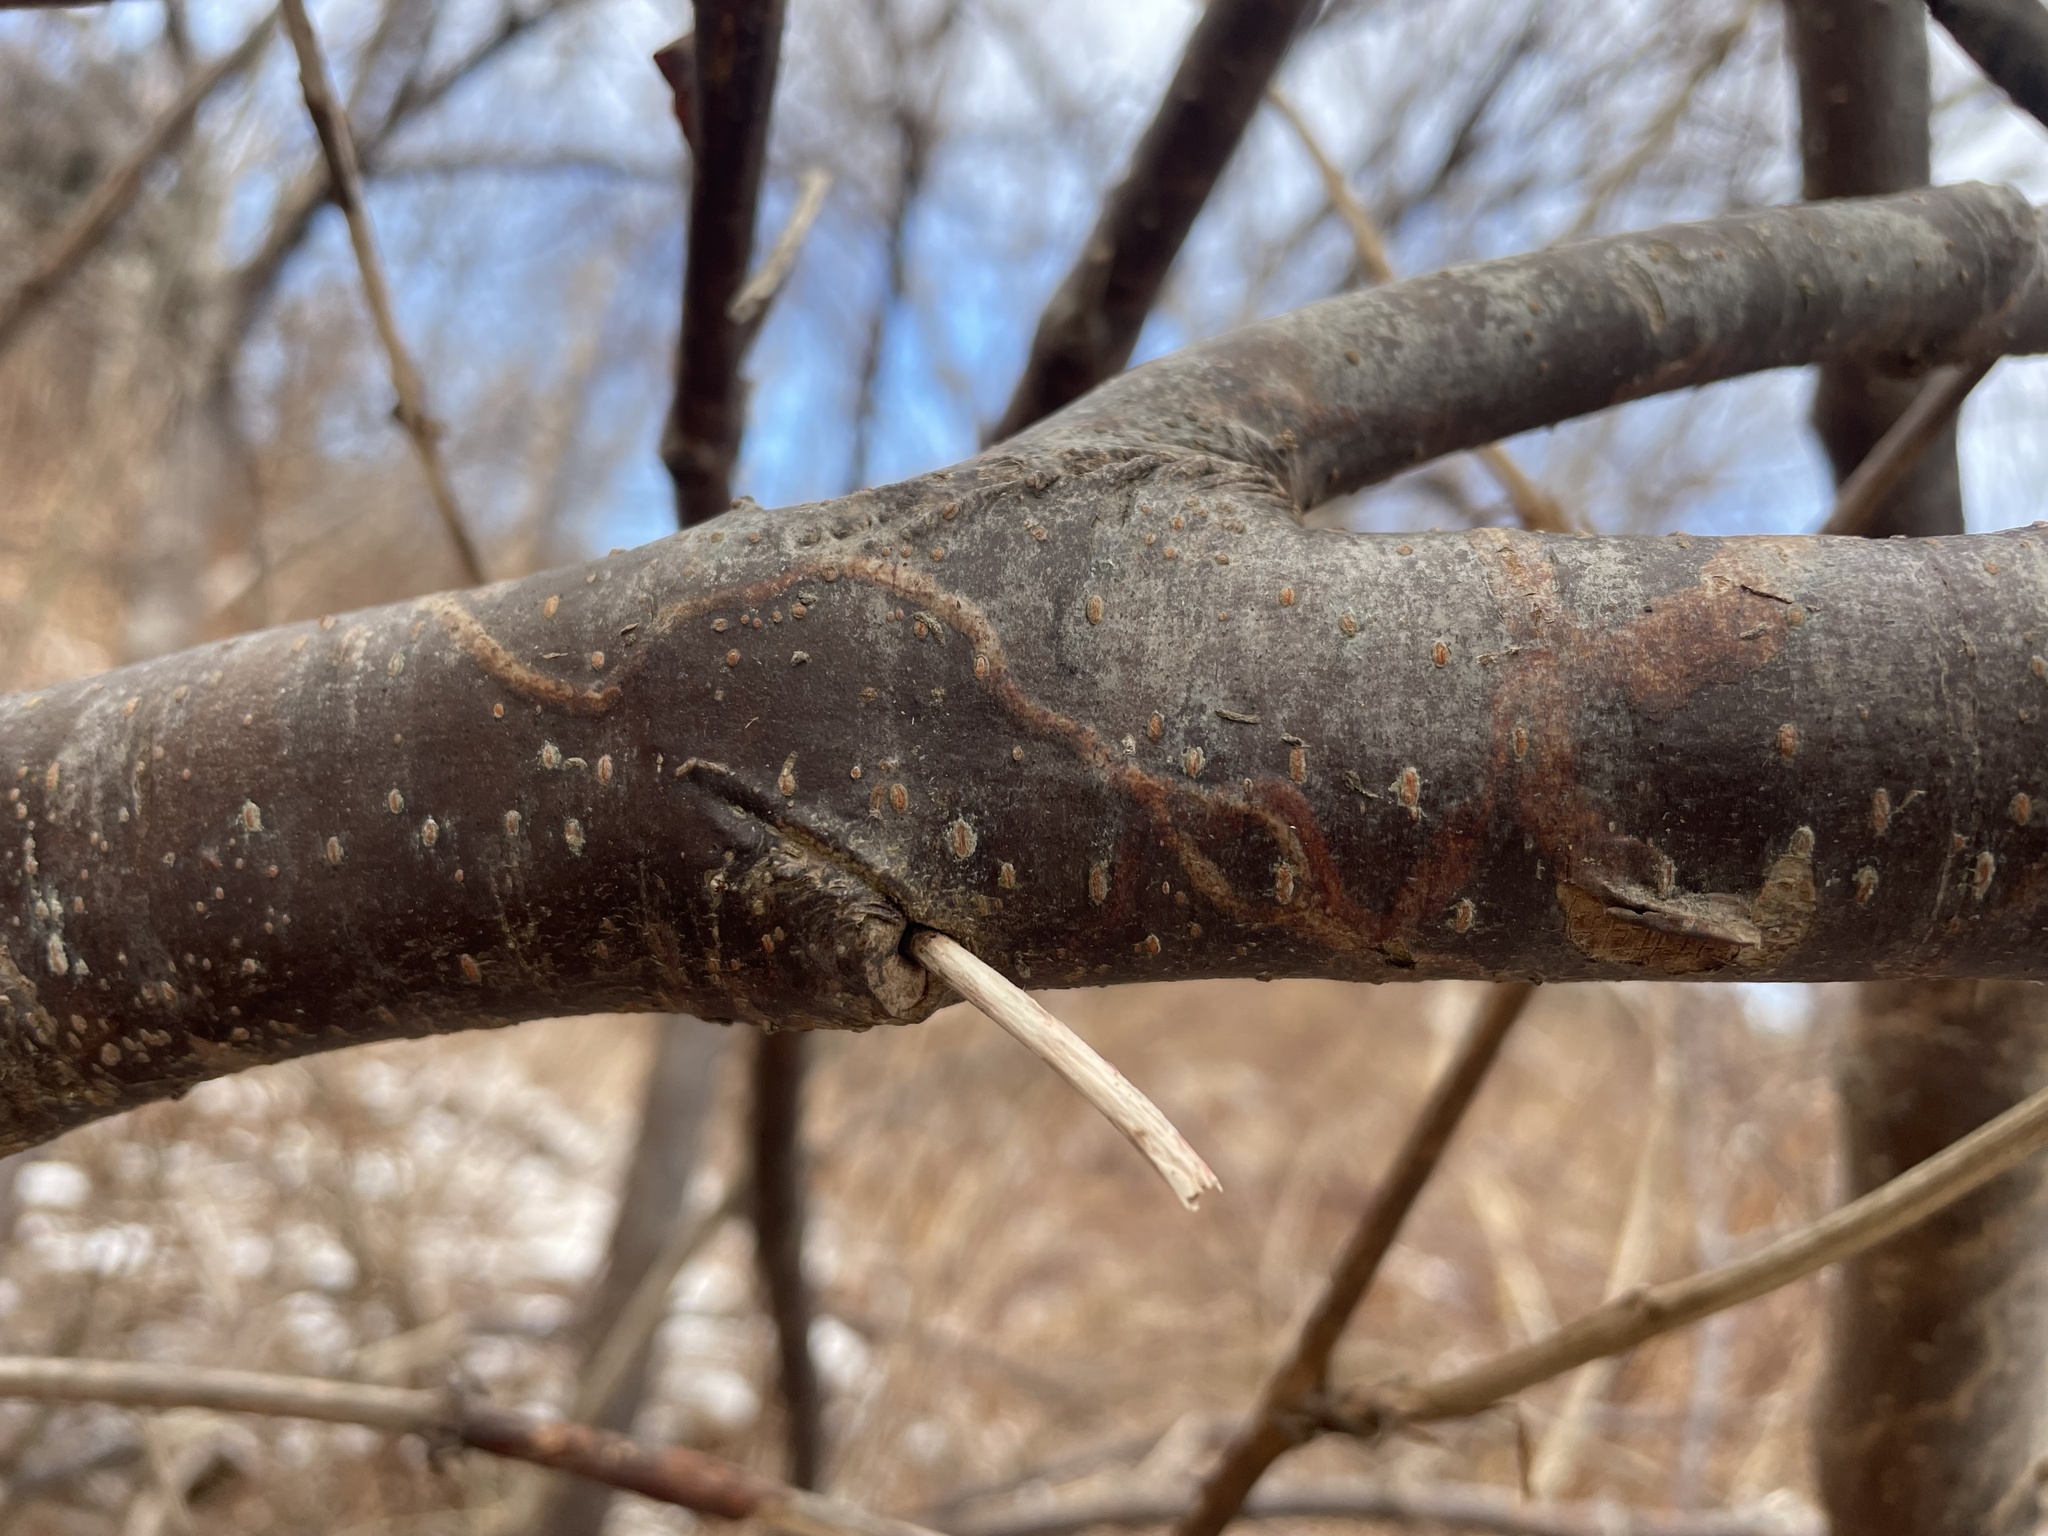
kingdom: Animalia
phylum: Arthropoda
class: Insecta
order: Lepidoptera
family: Gracillariidae
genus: Marmara
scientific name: Marmara viburnella
